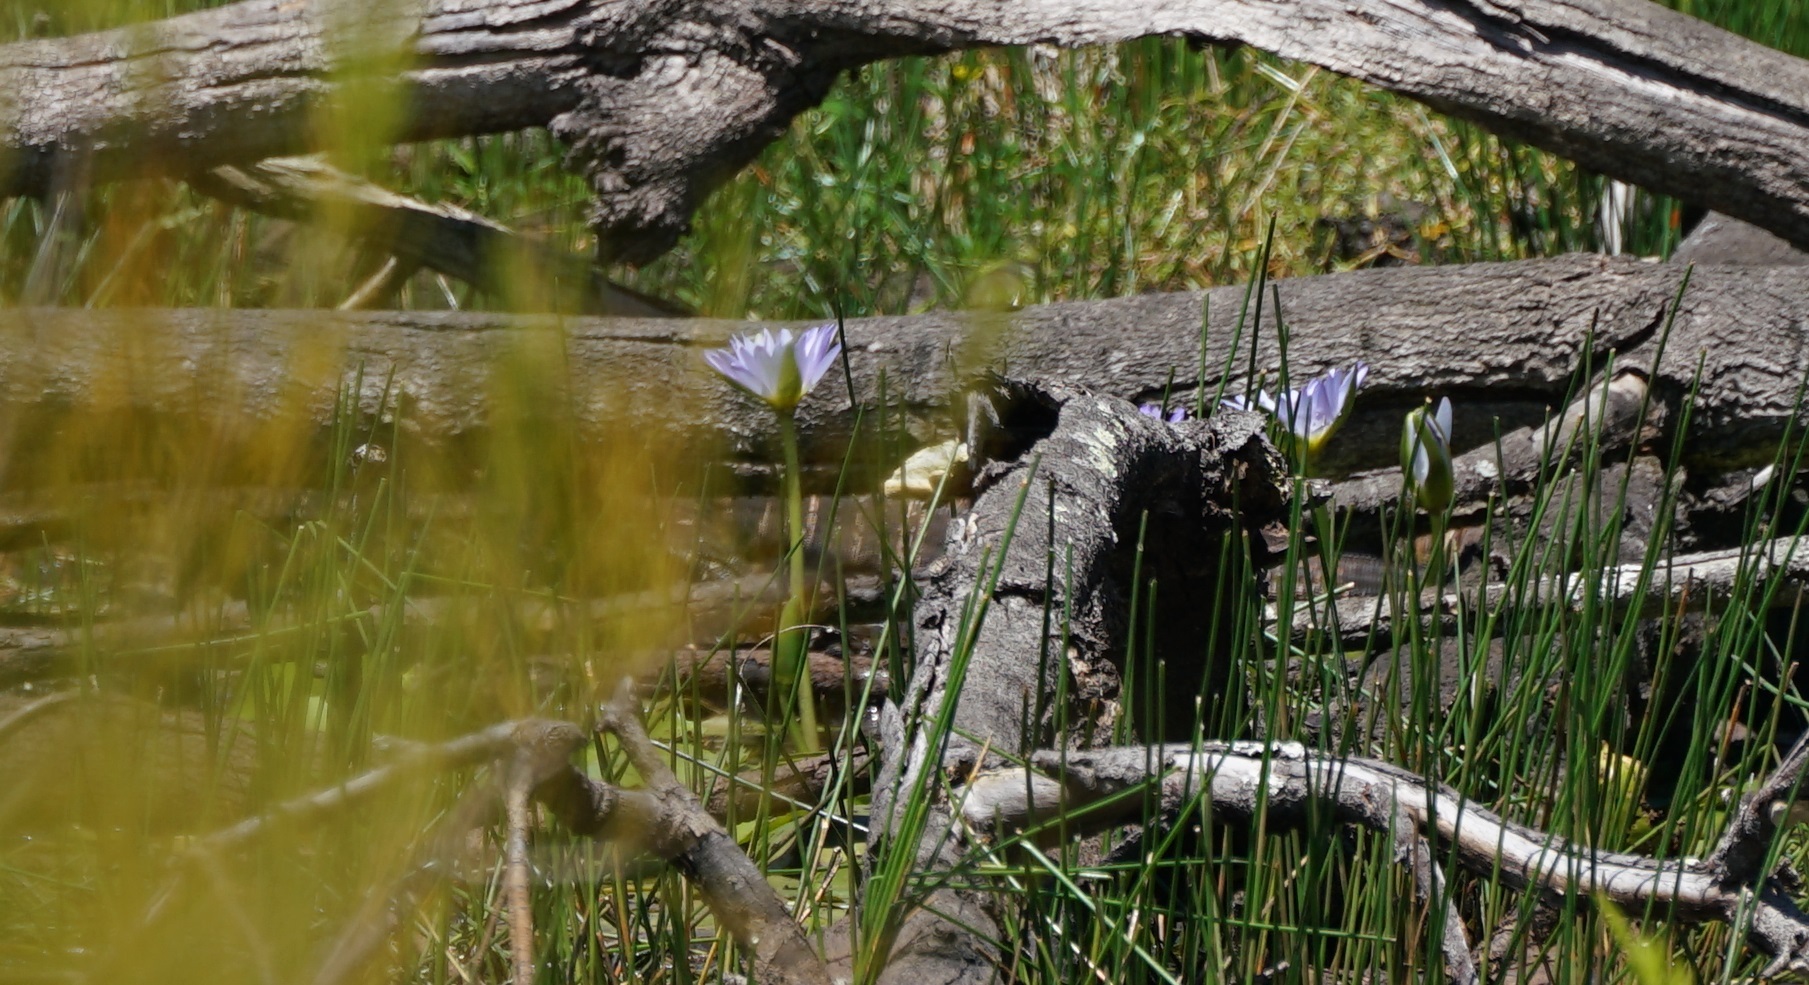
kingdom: Animalia
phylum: Chordata
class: Squamata
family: Varanidae
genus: Varanus
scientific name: Varanus varius
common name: Lace monitor
